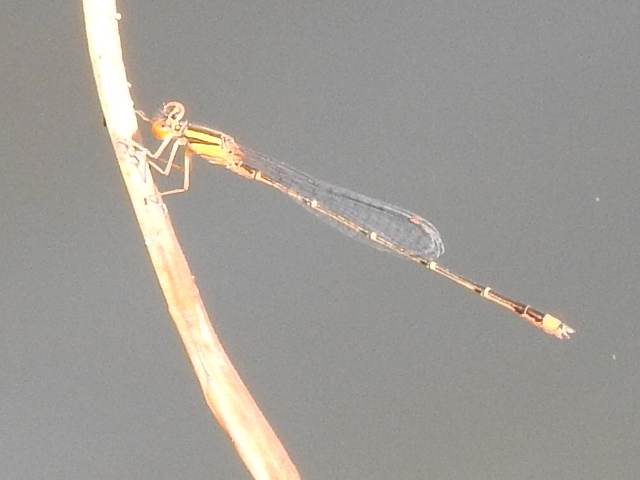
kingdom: Animalia
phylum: Arthropoda
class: Insecta
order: Odonata
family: Coenagrionidae
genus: Enallagma
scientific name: Enallagma signatum
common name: Orange bluet
